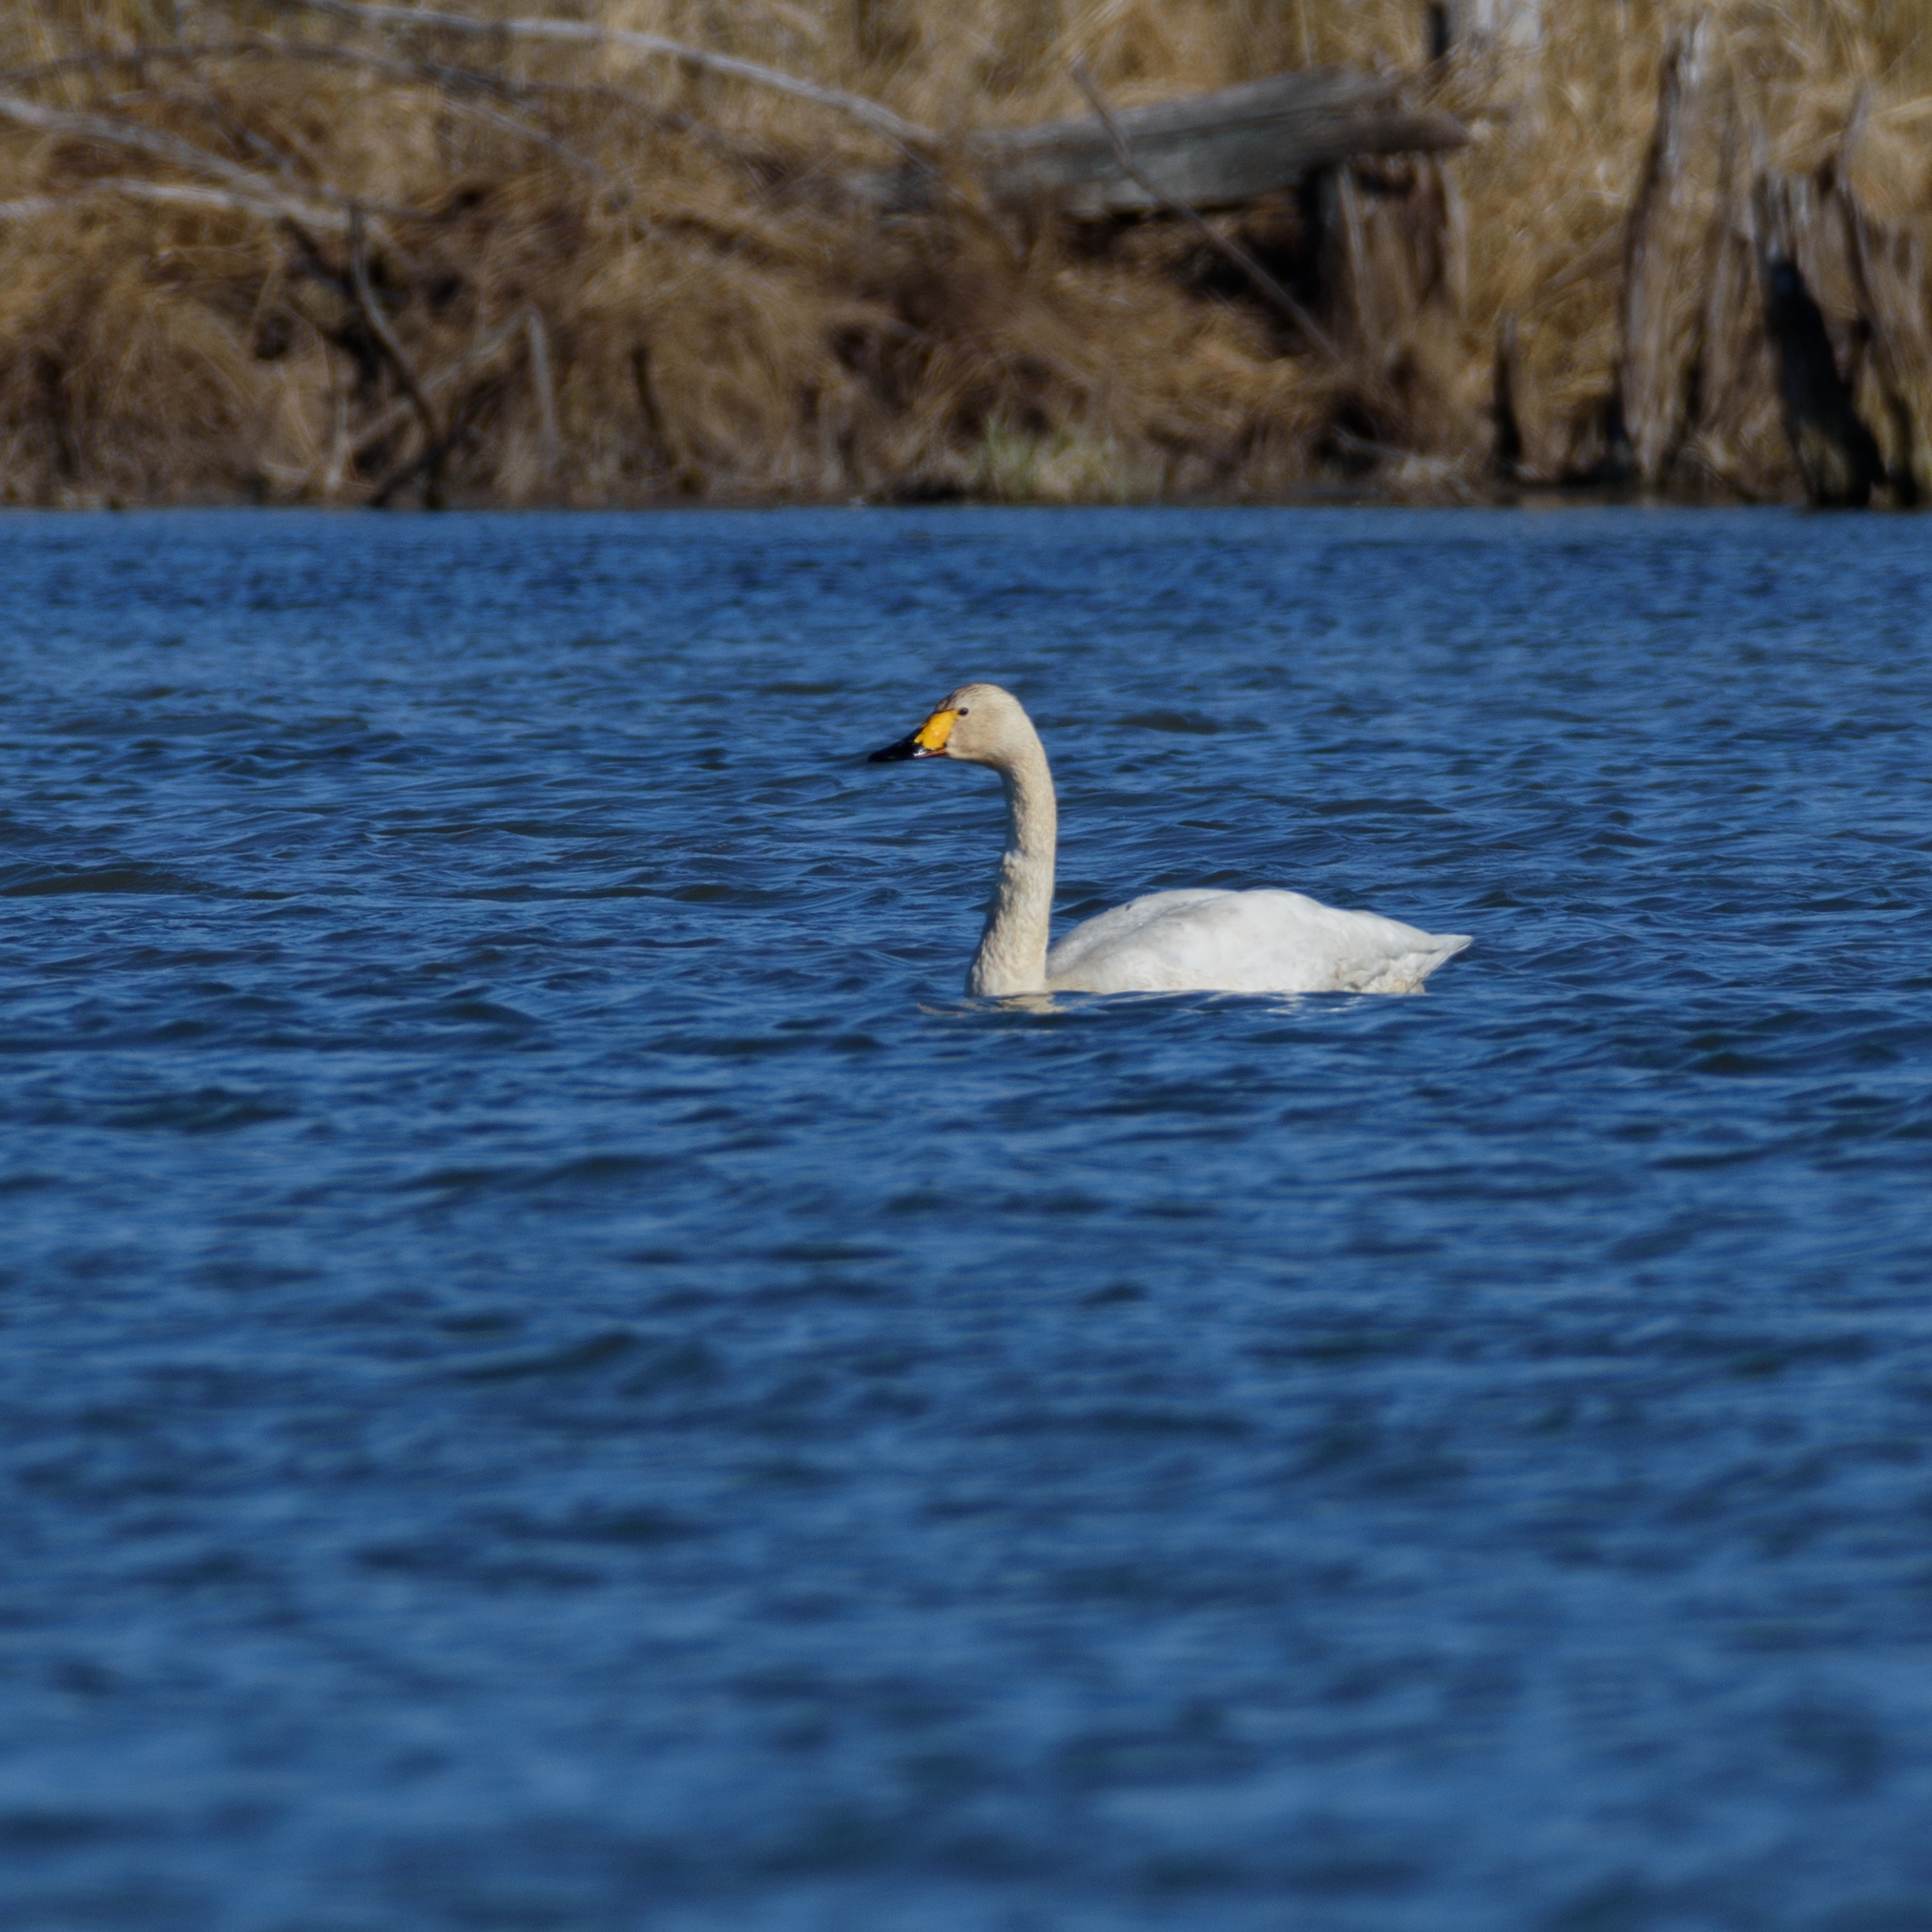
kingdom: Animalia
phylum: Chordata
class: Aves
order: Anseriformes
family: Anatidae
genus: Cygnus
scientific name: Cygnus columbianus
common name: Tundra swan
